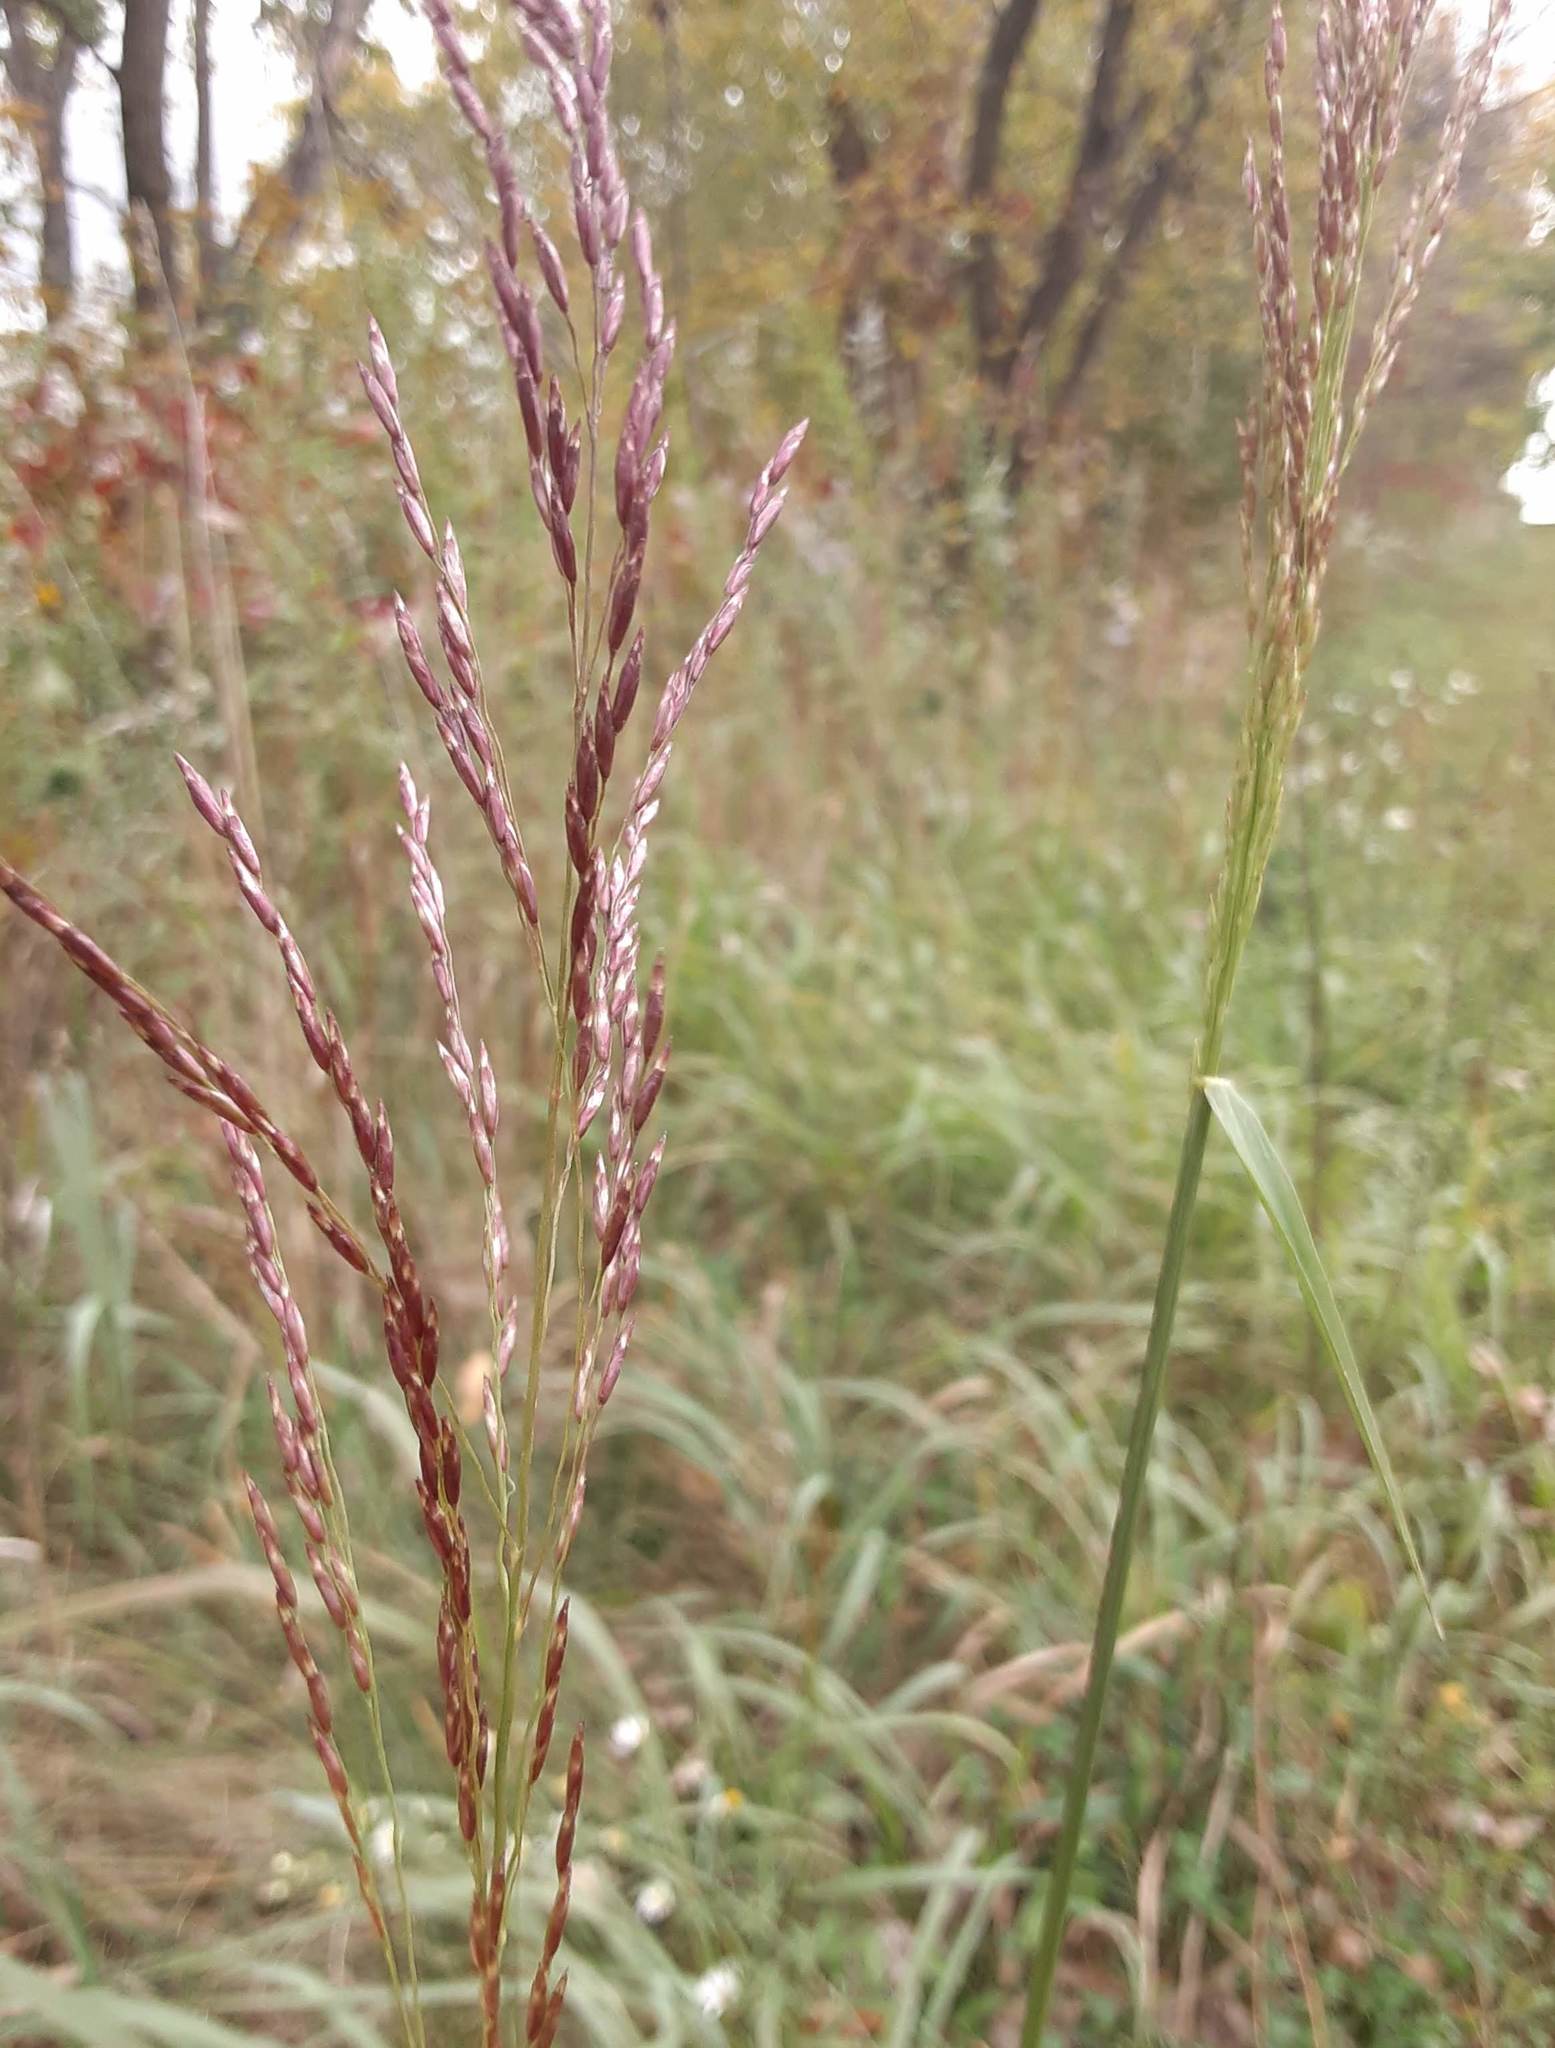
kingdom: Plantae
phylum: Tracheophyta
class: Liliopsida
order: Poales
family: Poaceae
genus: Tridens
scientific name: Tridens flavus
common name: Purpletop
